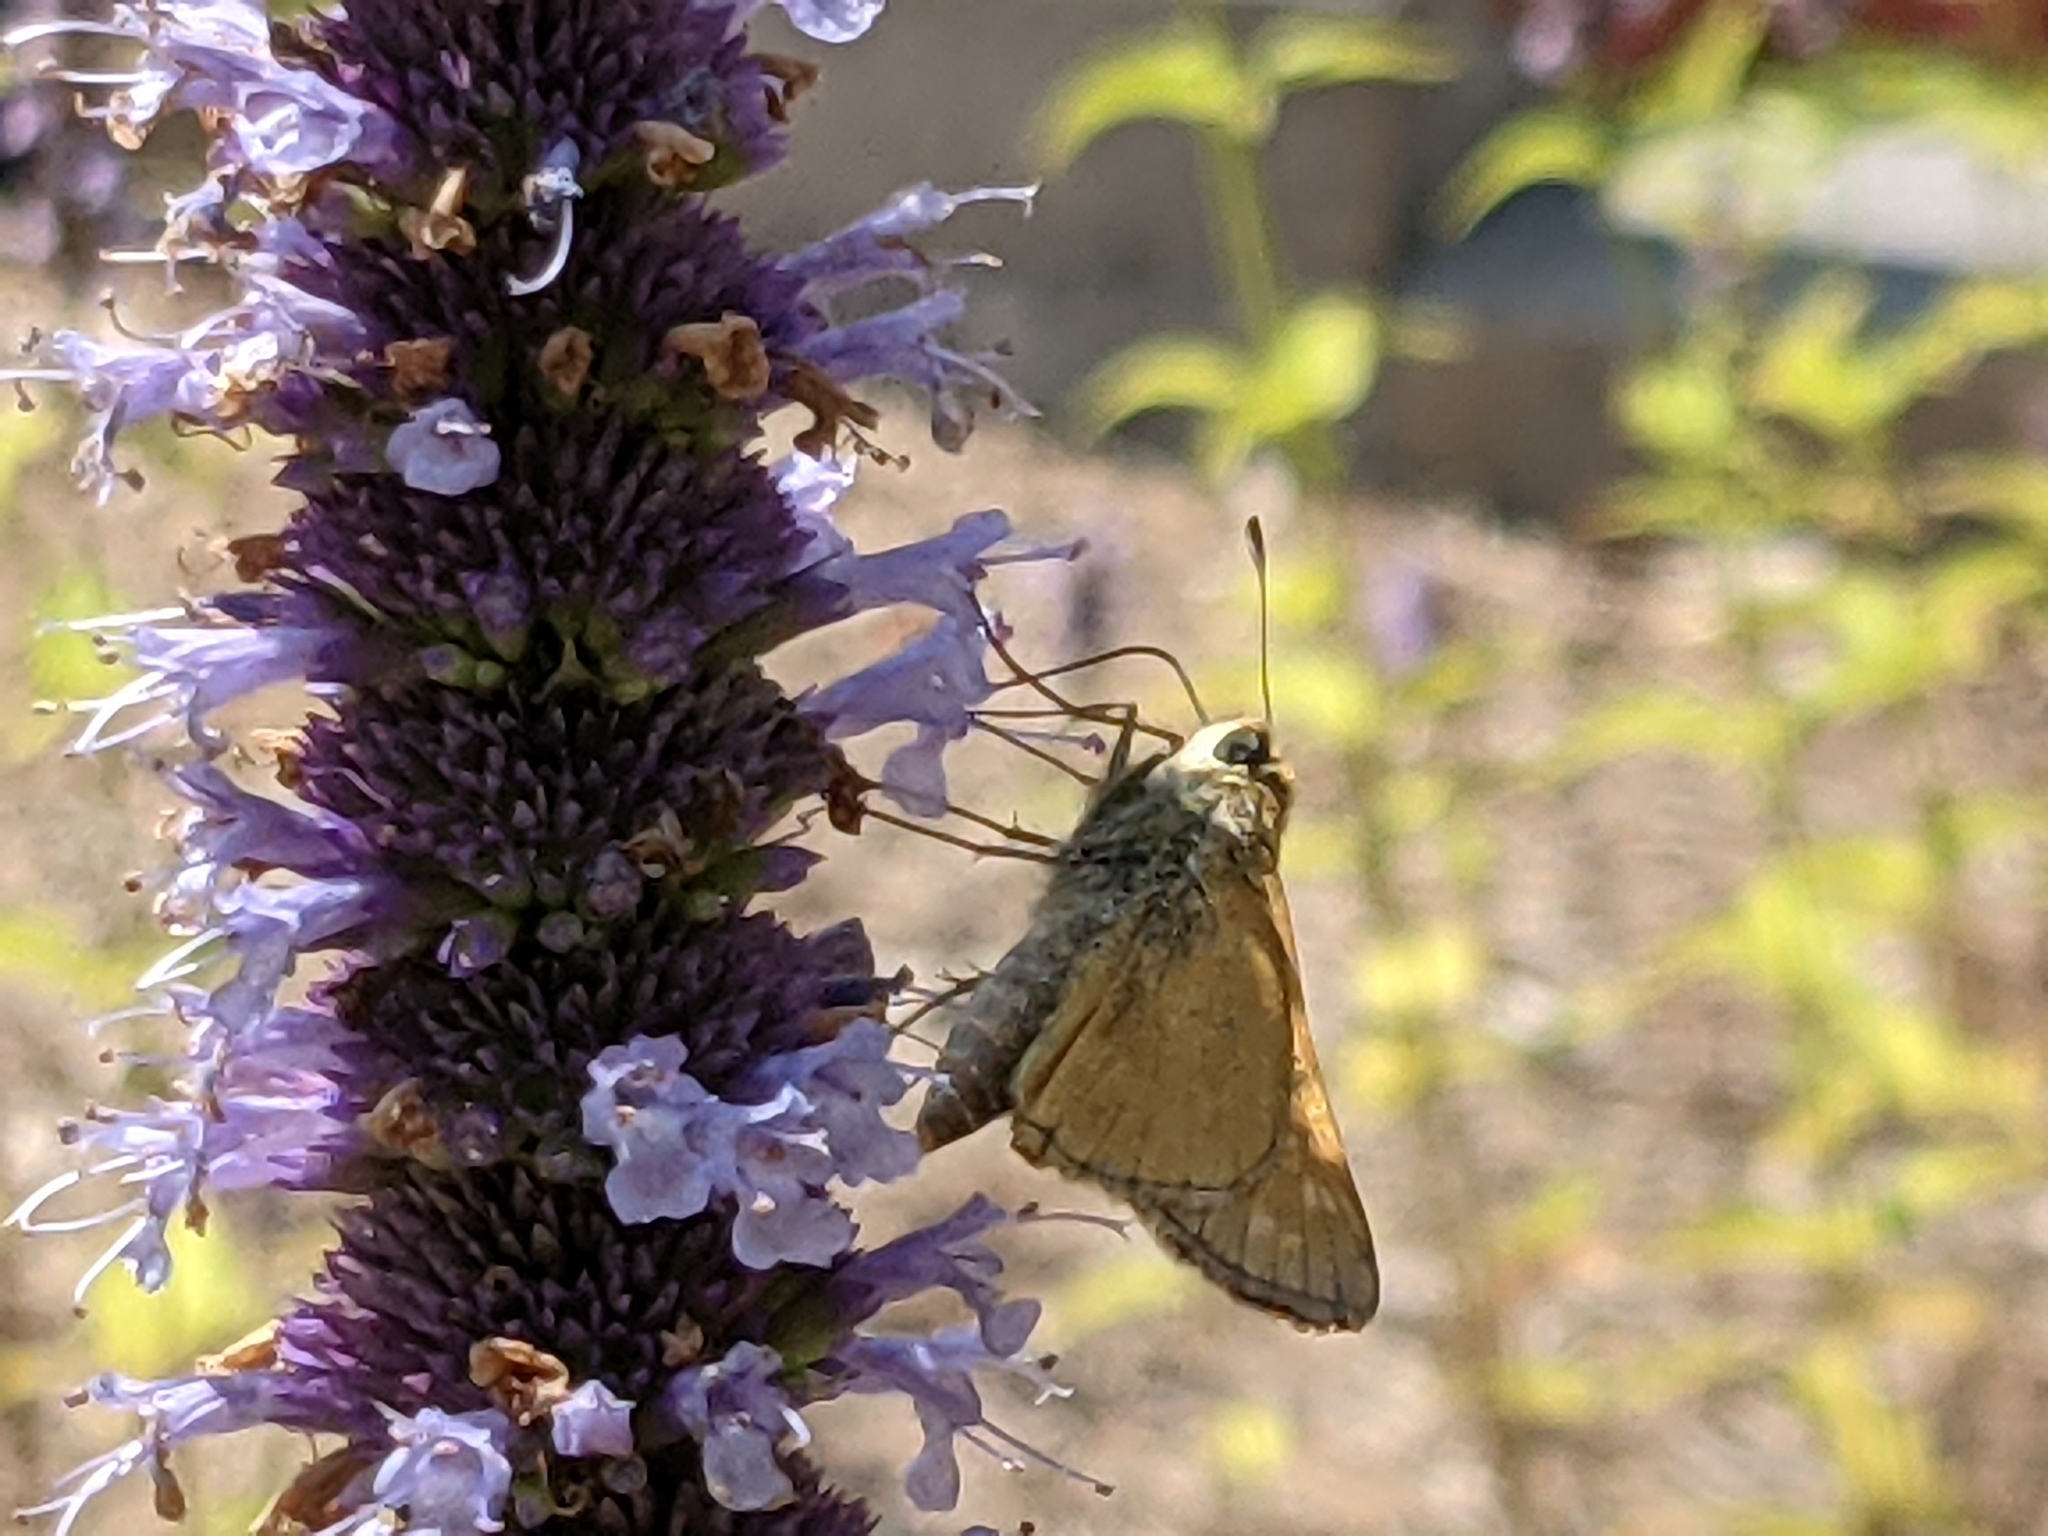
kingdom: Animalia
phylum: Arthropoda
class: Insecta
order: Lepidoptera
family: Hesperiidae
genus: Atalopedes
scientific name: Atalopedes
